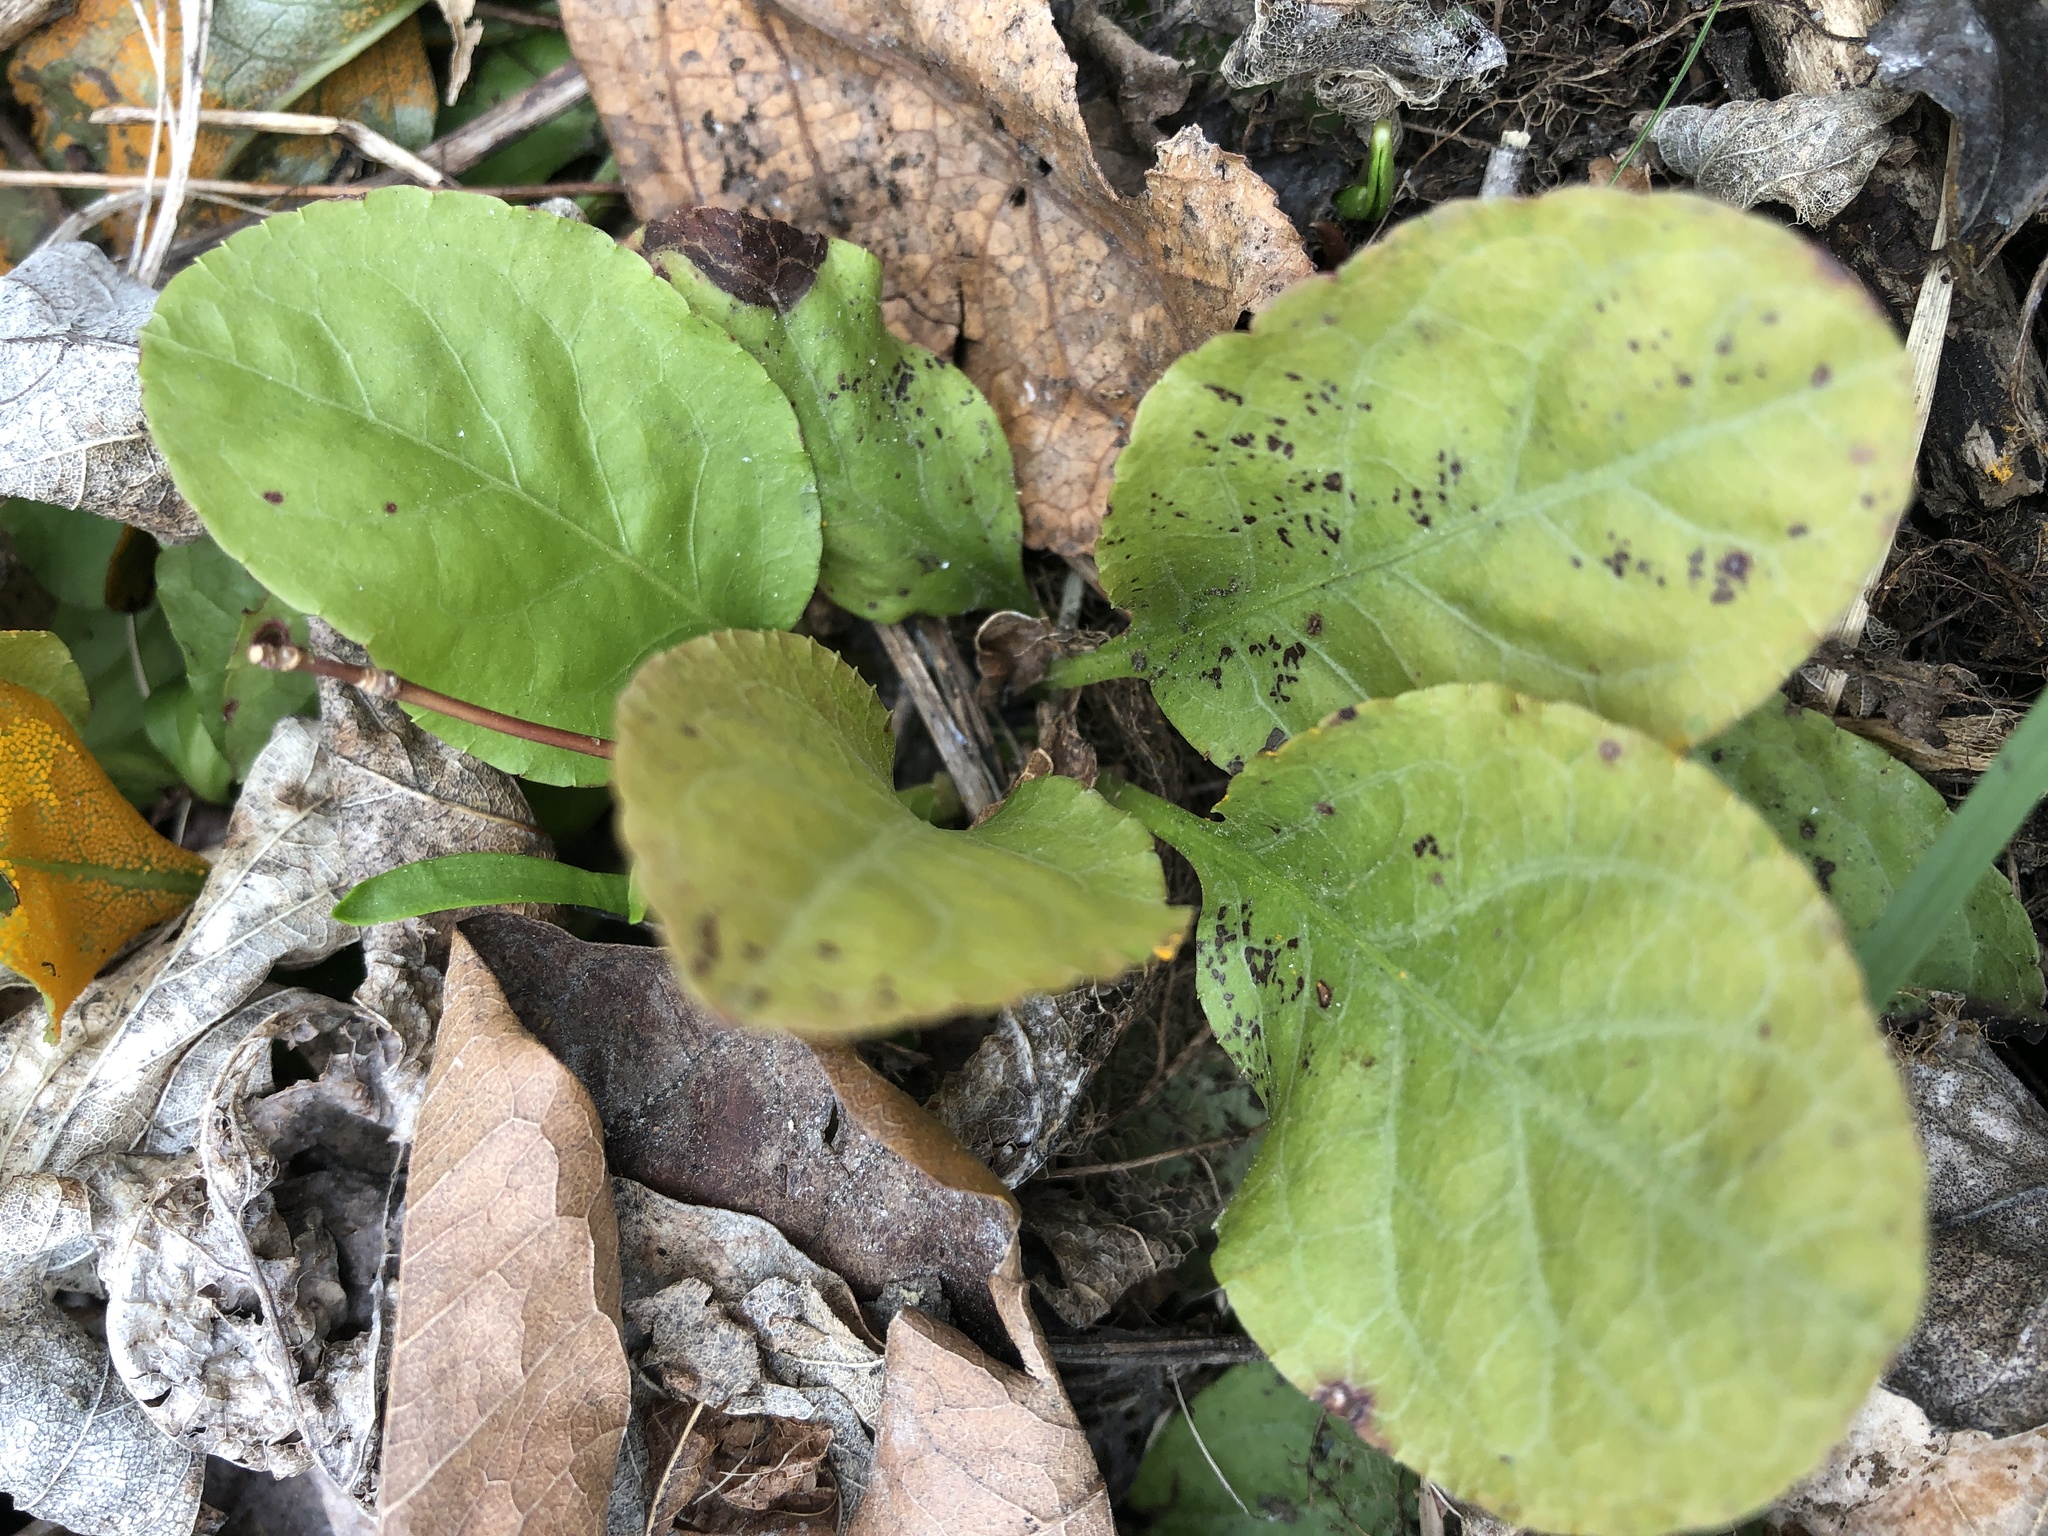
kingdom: Plantae
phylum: Tracheophyta
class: Magnoliopsida
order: Ericales
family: Ericaceae
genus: Pyrola
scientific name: Pyrola elliptica
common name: Shinleaf
